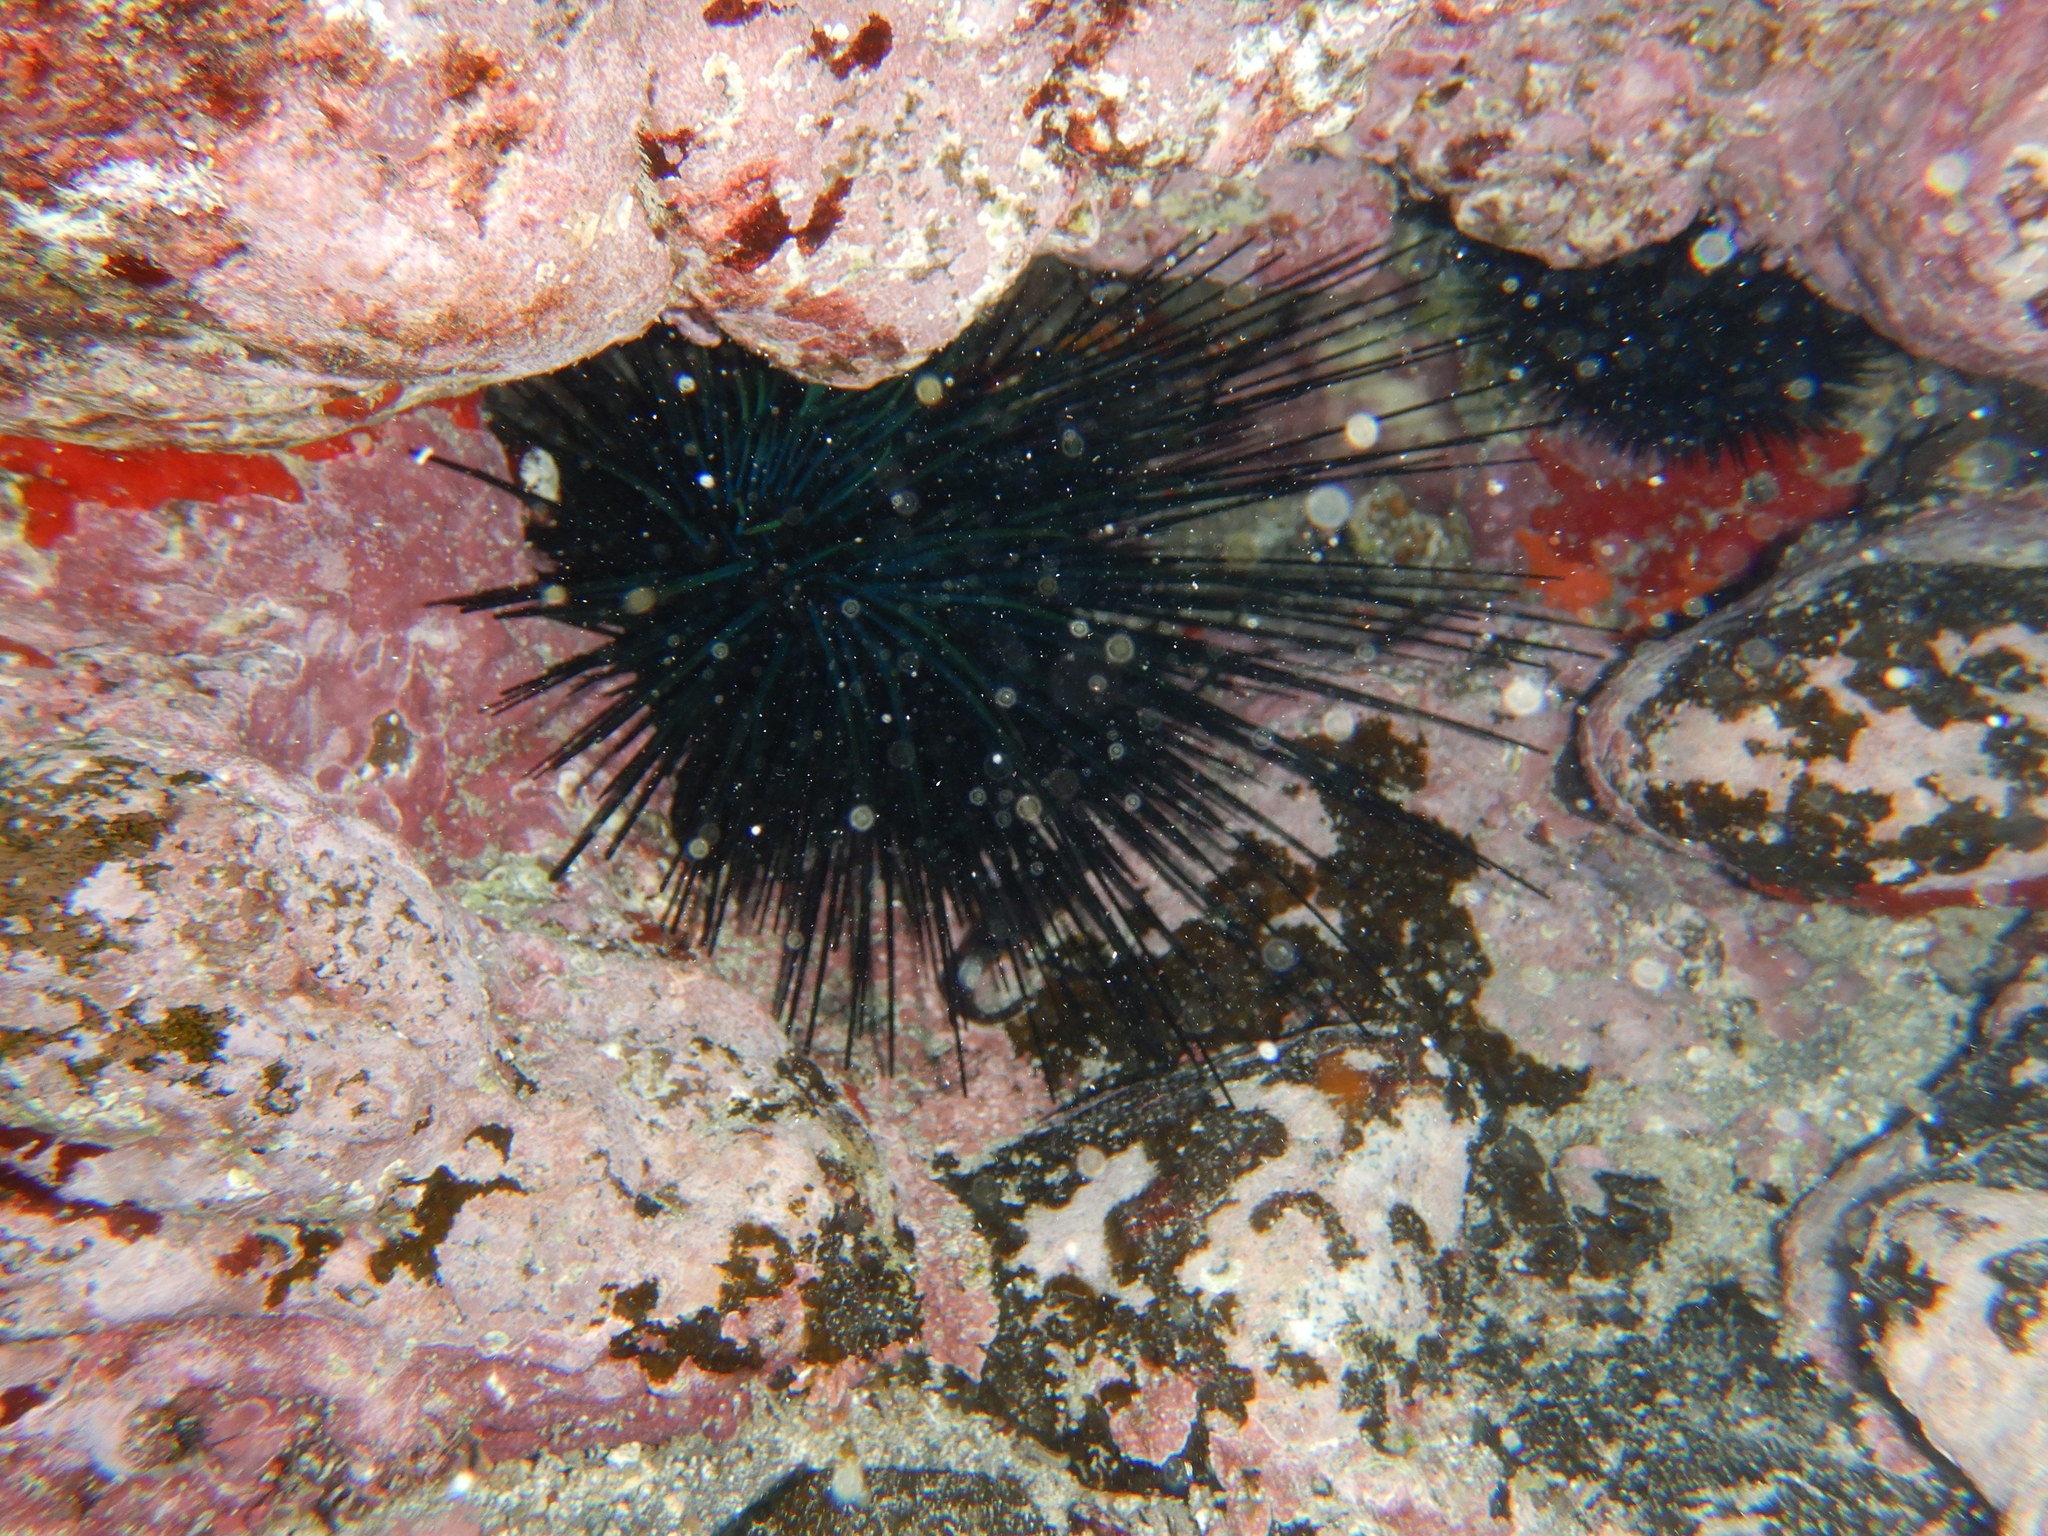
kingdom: Animalia
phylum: Echinodermata
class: Echinoidea
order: Diadematoida
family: Diadematidae
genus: Diadema
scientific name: Diadema africanum
